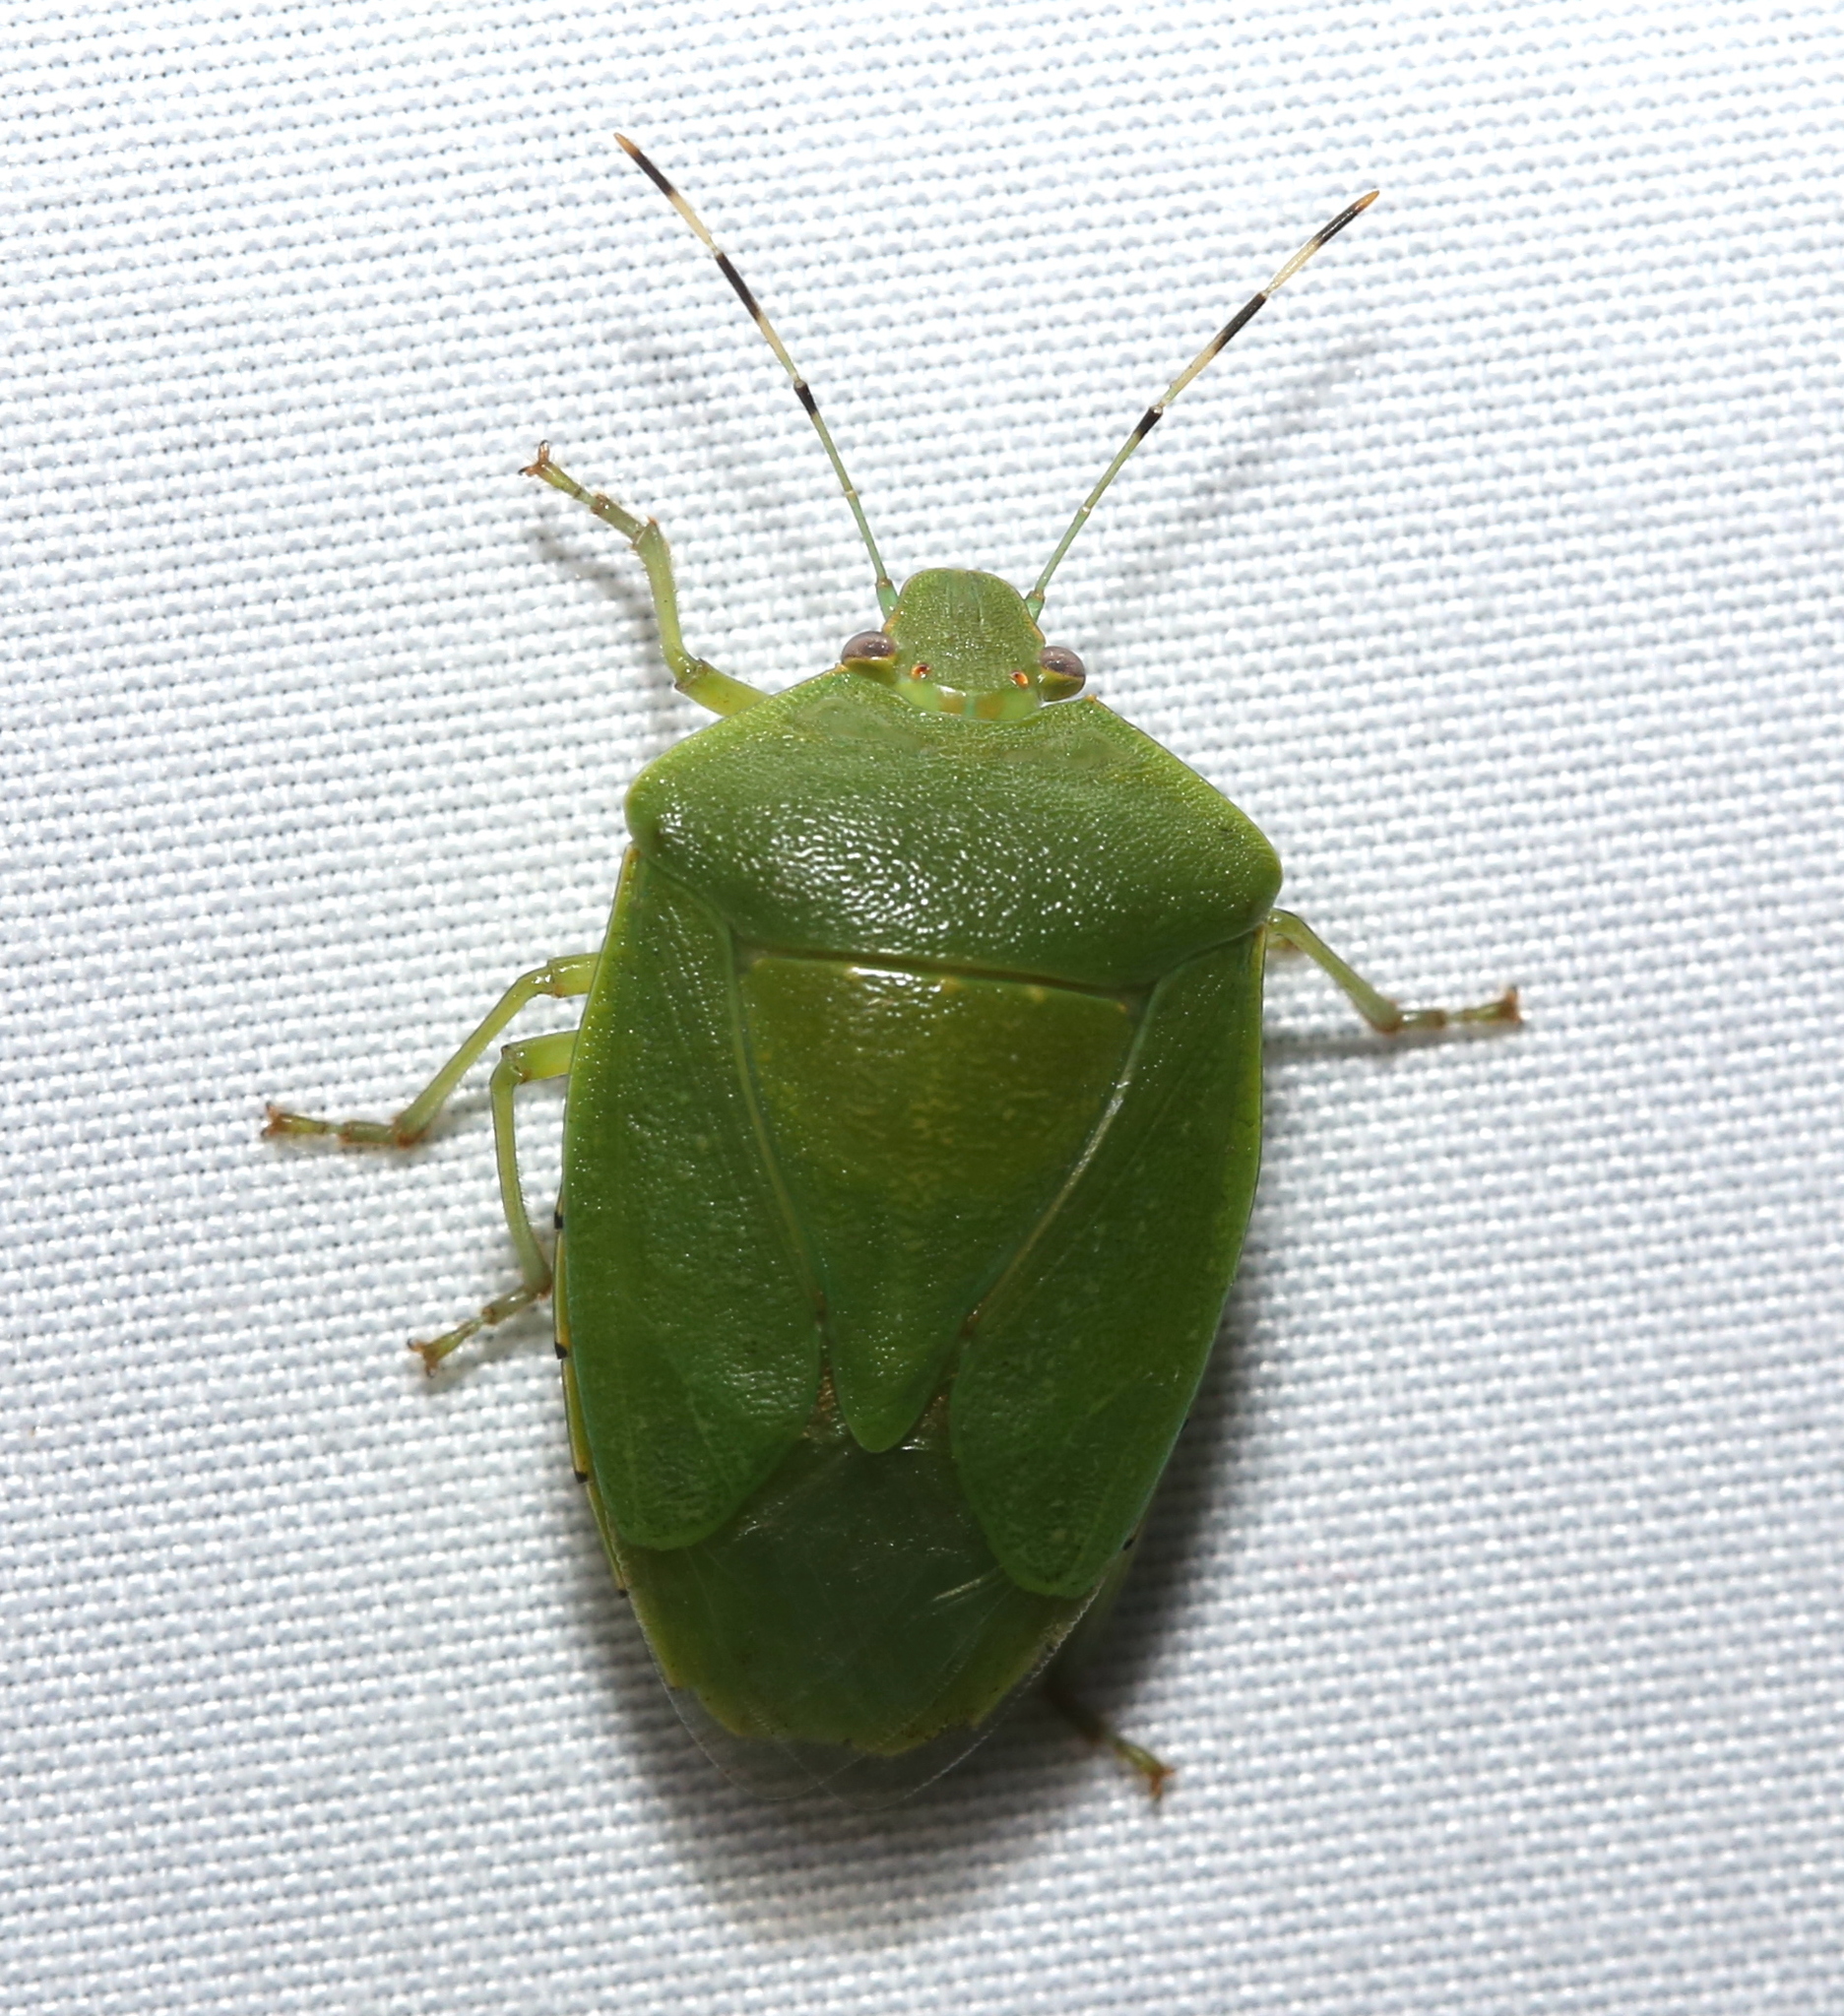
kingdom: Animalia
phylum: Arthropoda
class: Insecta
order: Hemiptera
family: Pentatomidae
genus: Chinavia
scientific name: Chinavia hilaris
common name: Green stink bug
